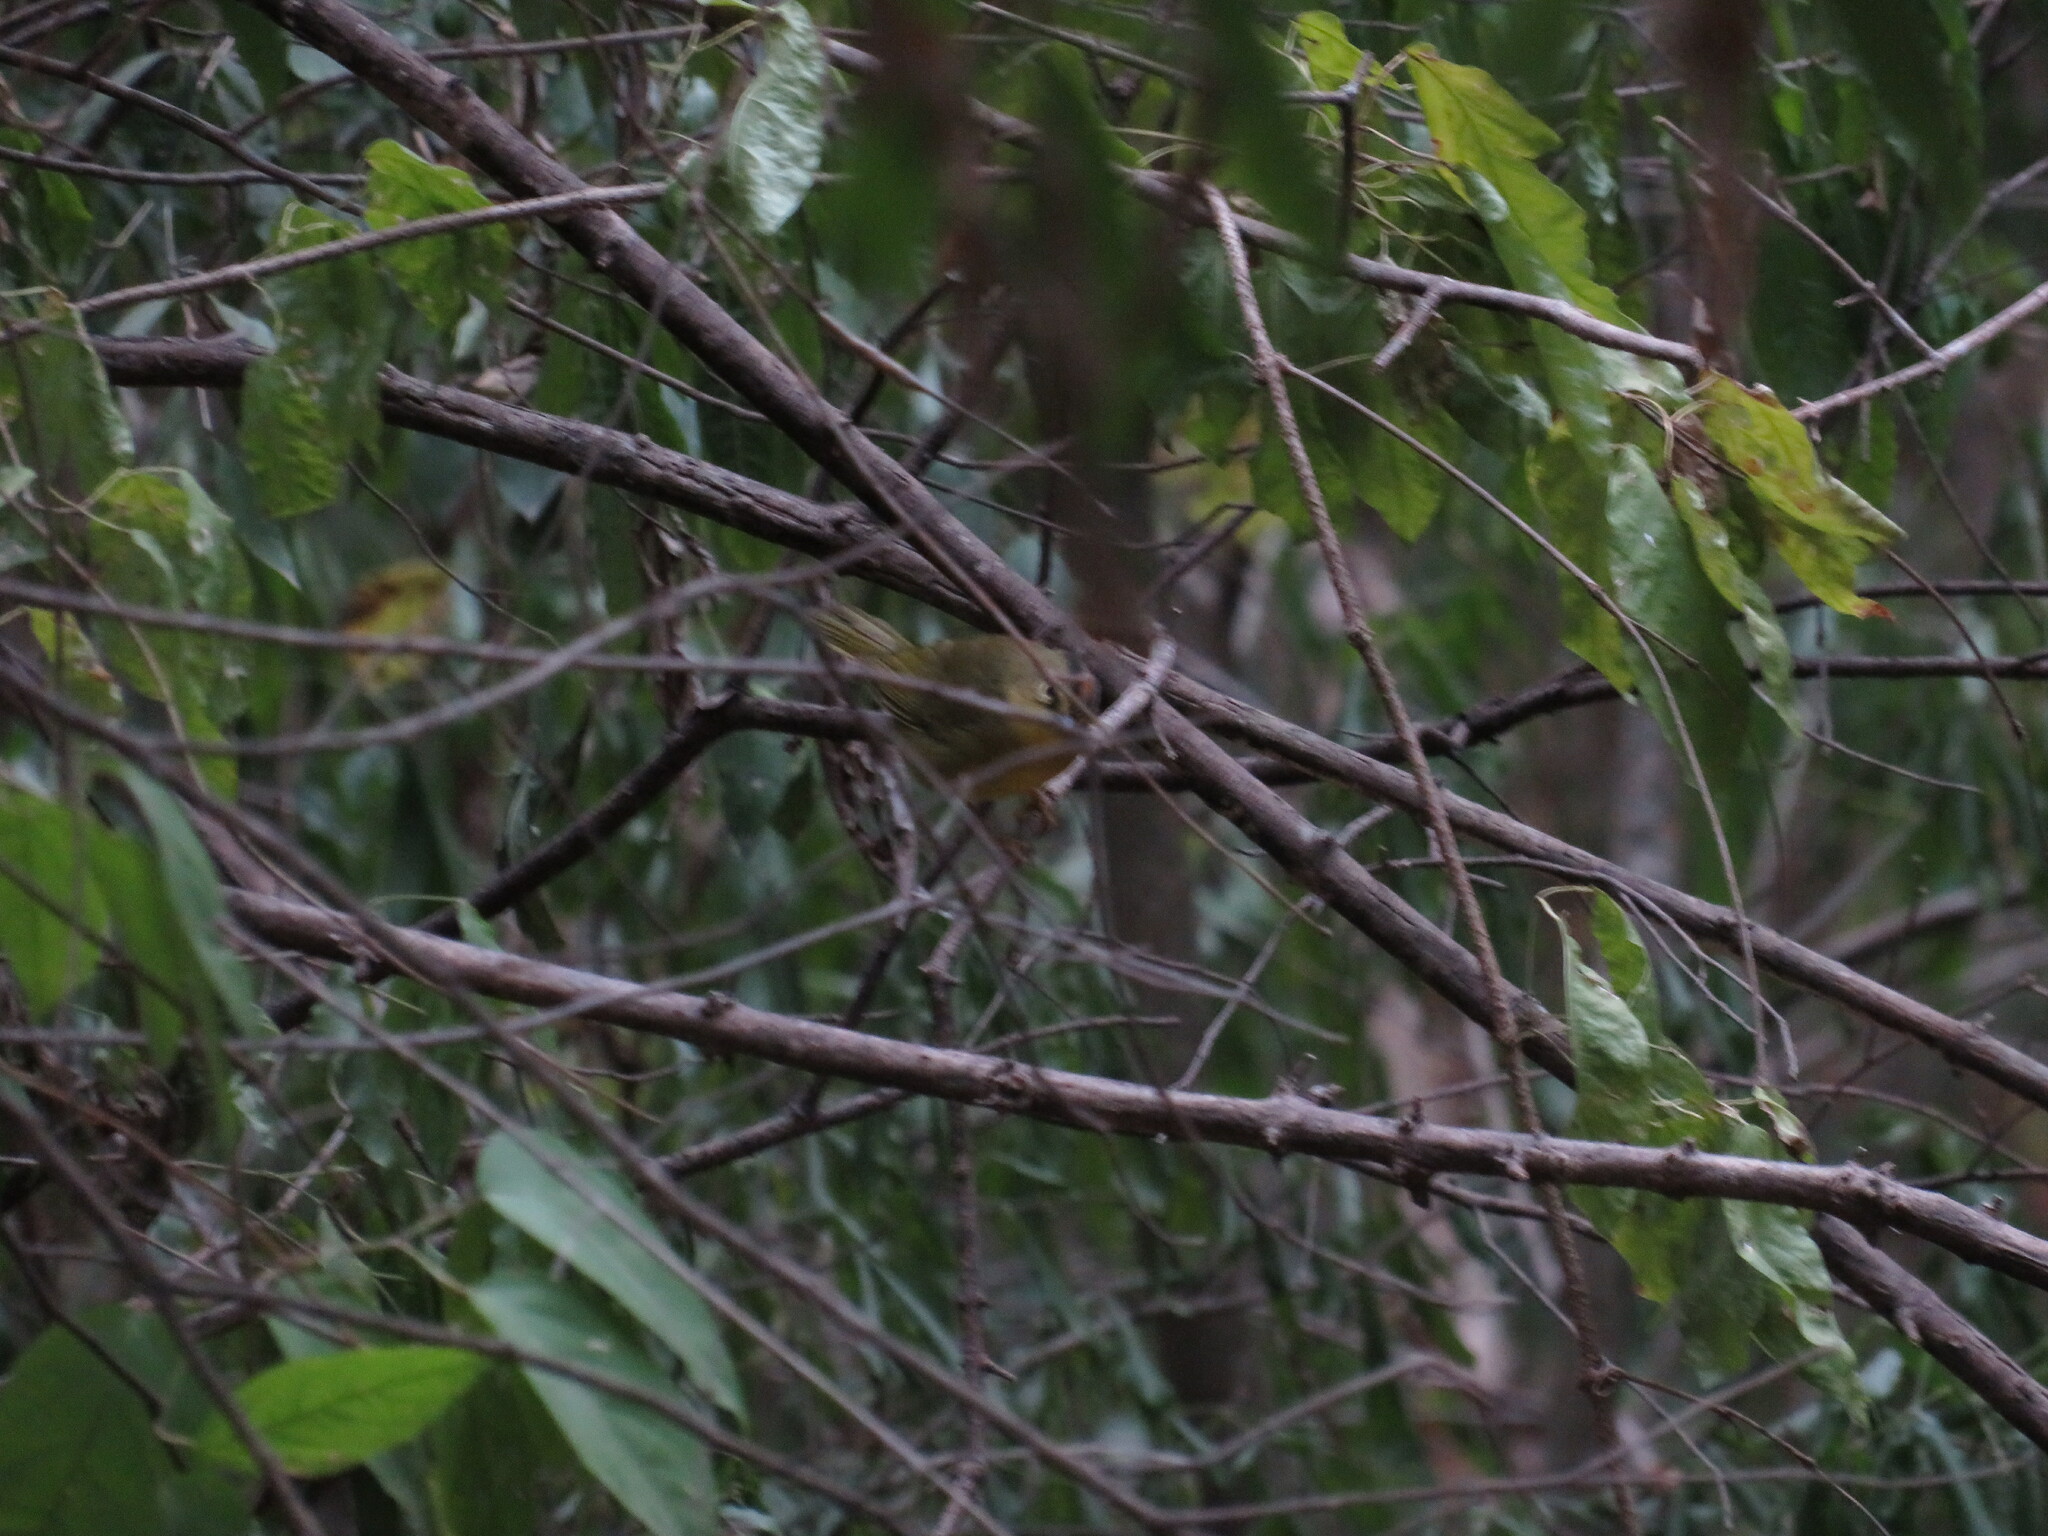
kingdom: Animalia
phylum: Chordata
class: Aves
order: Passeriformes
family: Parulidae
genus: Myiothlypis
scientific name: Myiothlypis bivittata
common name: Two-banded warbler
